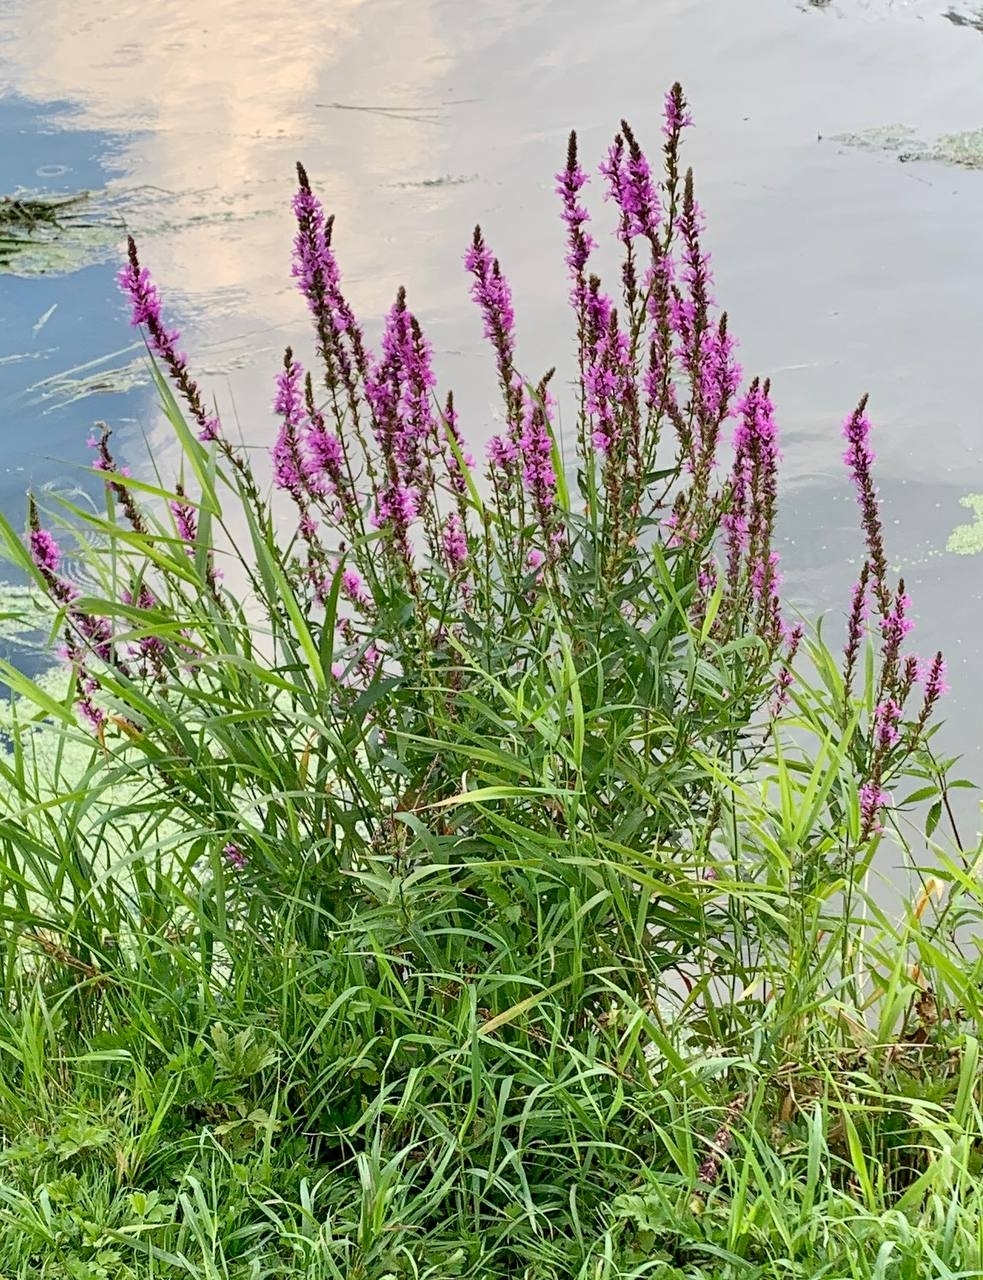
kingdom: Plantae
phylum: Tracheophyta
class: Magnoliopsida
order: Myrtales
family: Lythraceae
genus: Lythrum
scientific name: Lythrum salicaria
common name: Purple loosestrife
